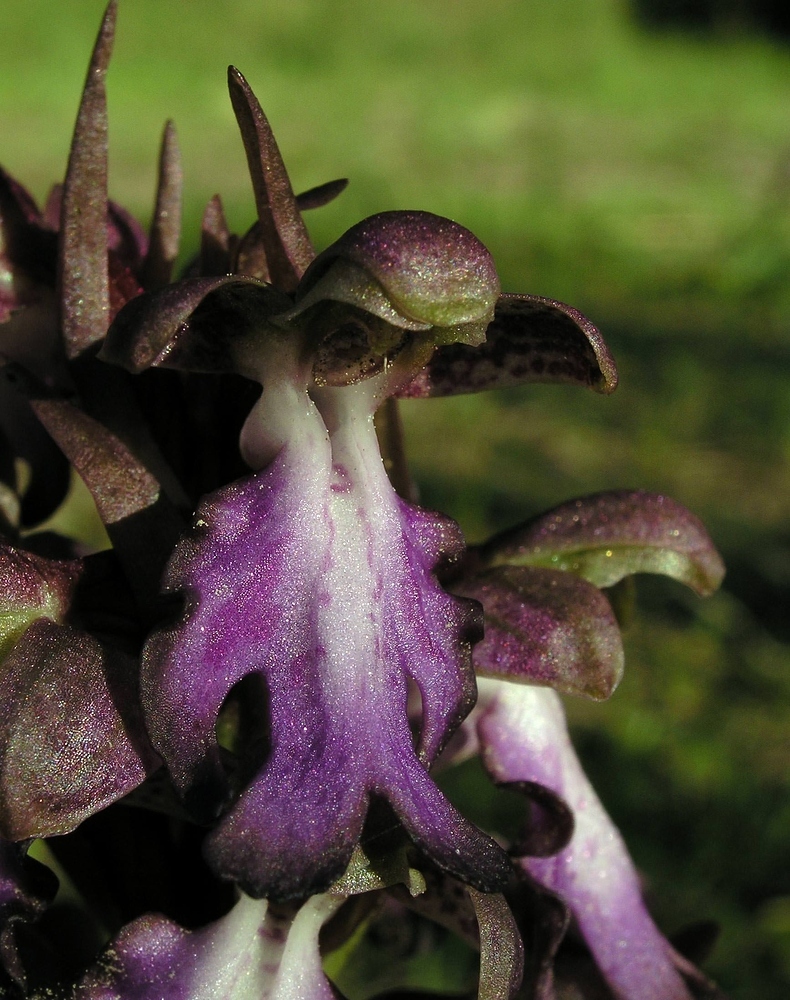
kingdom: Plantae
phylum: Tracheophyta
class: Liliopsida
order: Asparagales
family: Orchidaceae
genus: Himantoglossum
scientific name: Himantoglossum robertianum
